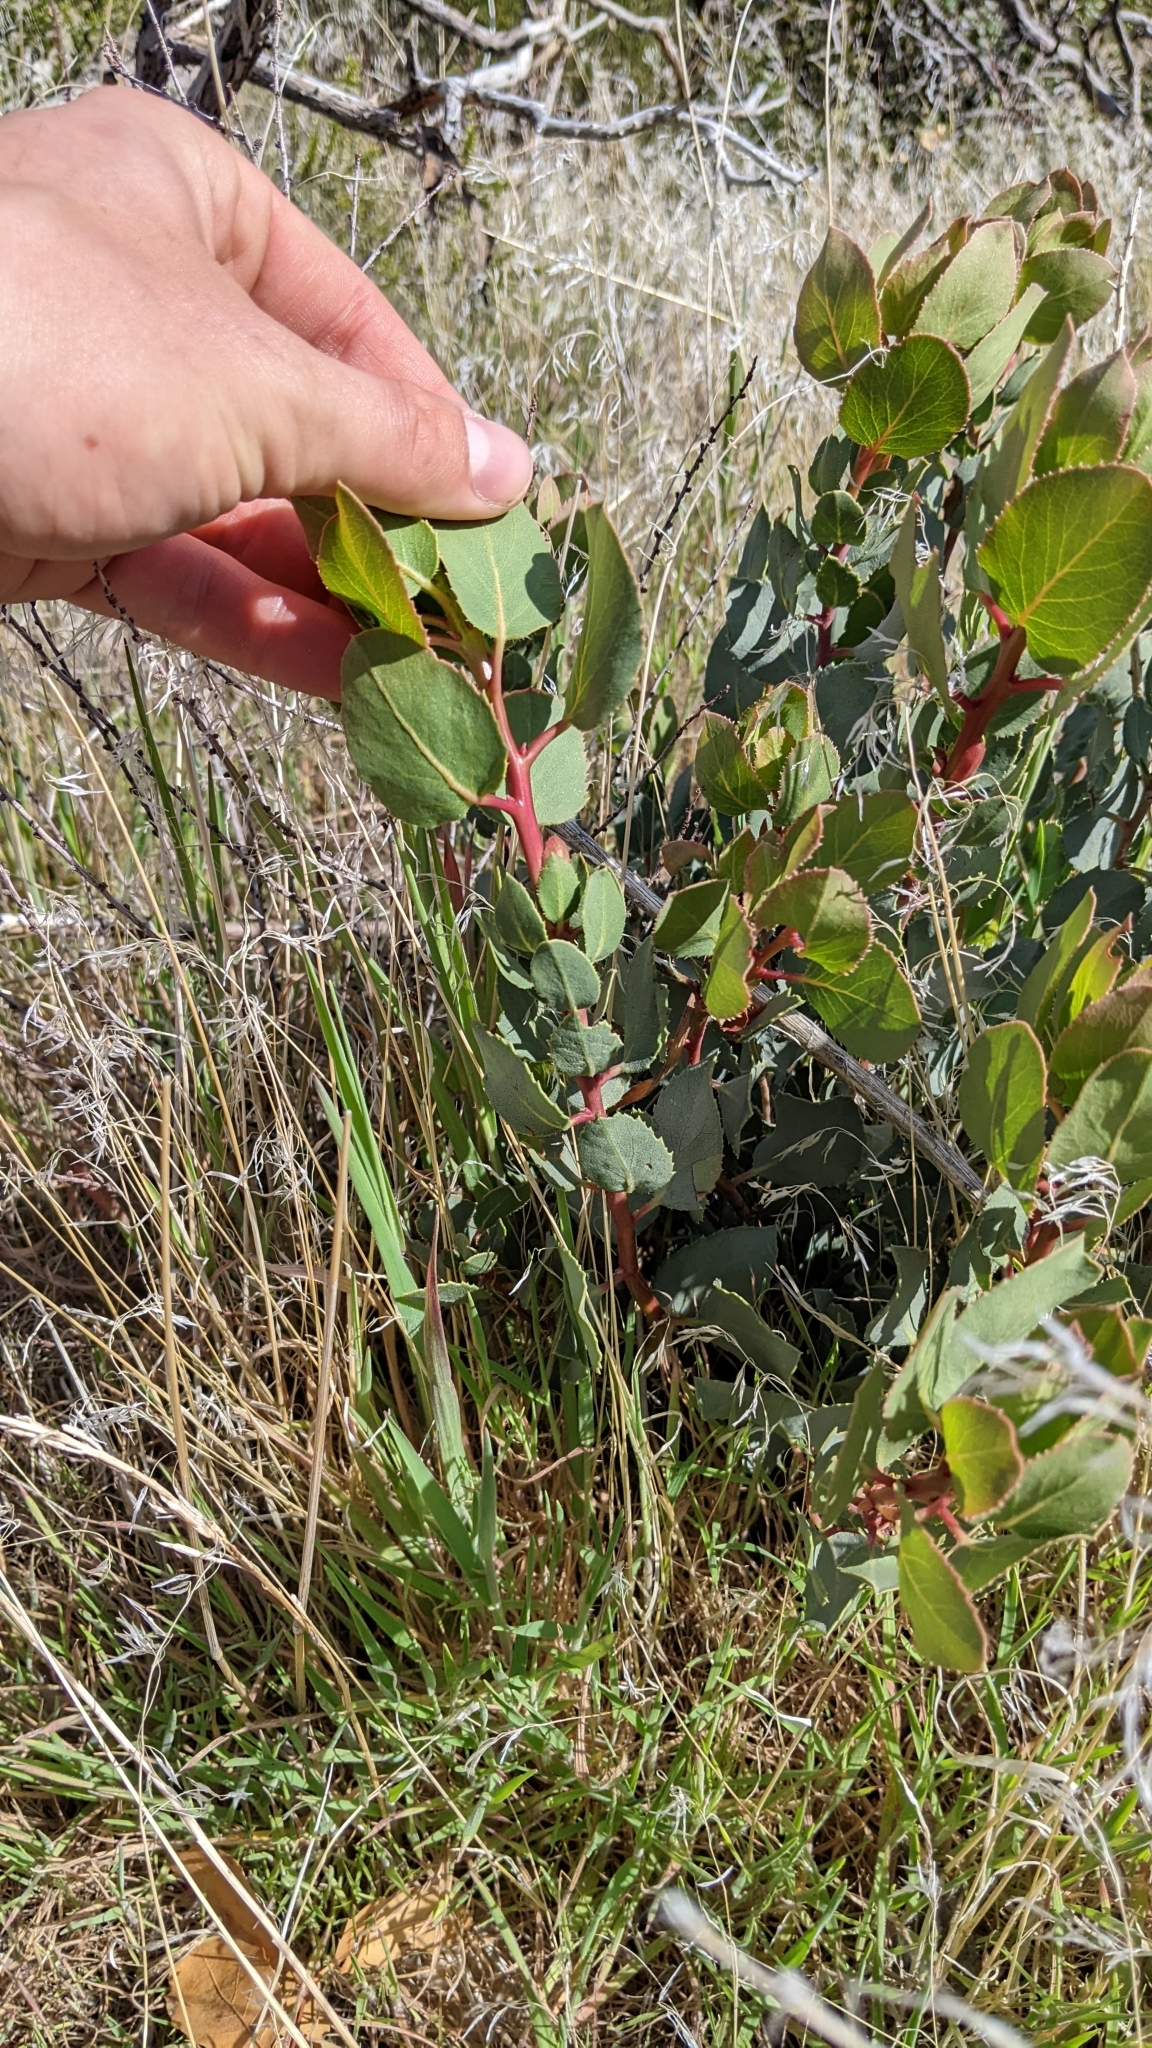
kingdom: Plantae
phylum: Tracheophyta
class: Magnoliopsida
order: Ericales
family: Ericaceae
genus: Arctostaphylos
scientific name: Arctostaphylos glauca
